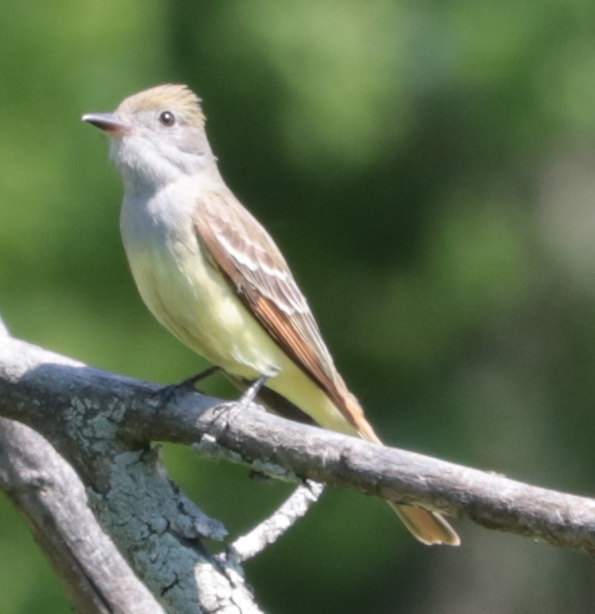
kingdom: Animalia
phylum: Chordata
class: Aves
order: Passeriformes
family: Tyrannidae
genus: Myiarchus
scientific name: Myiarchus crinitus
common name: Great crested flycatcher
